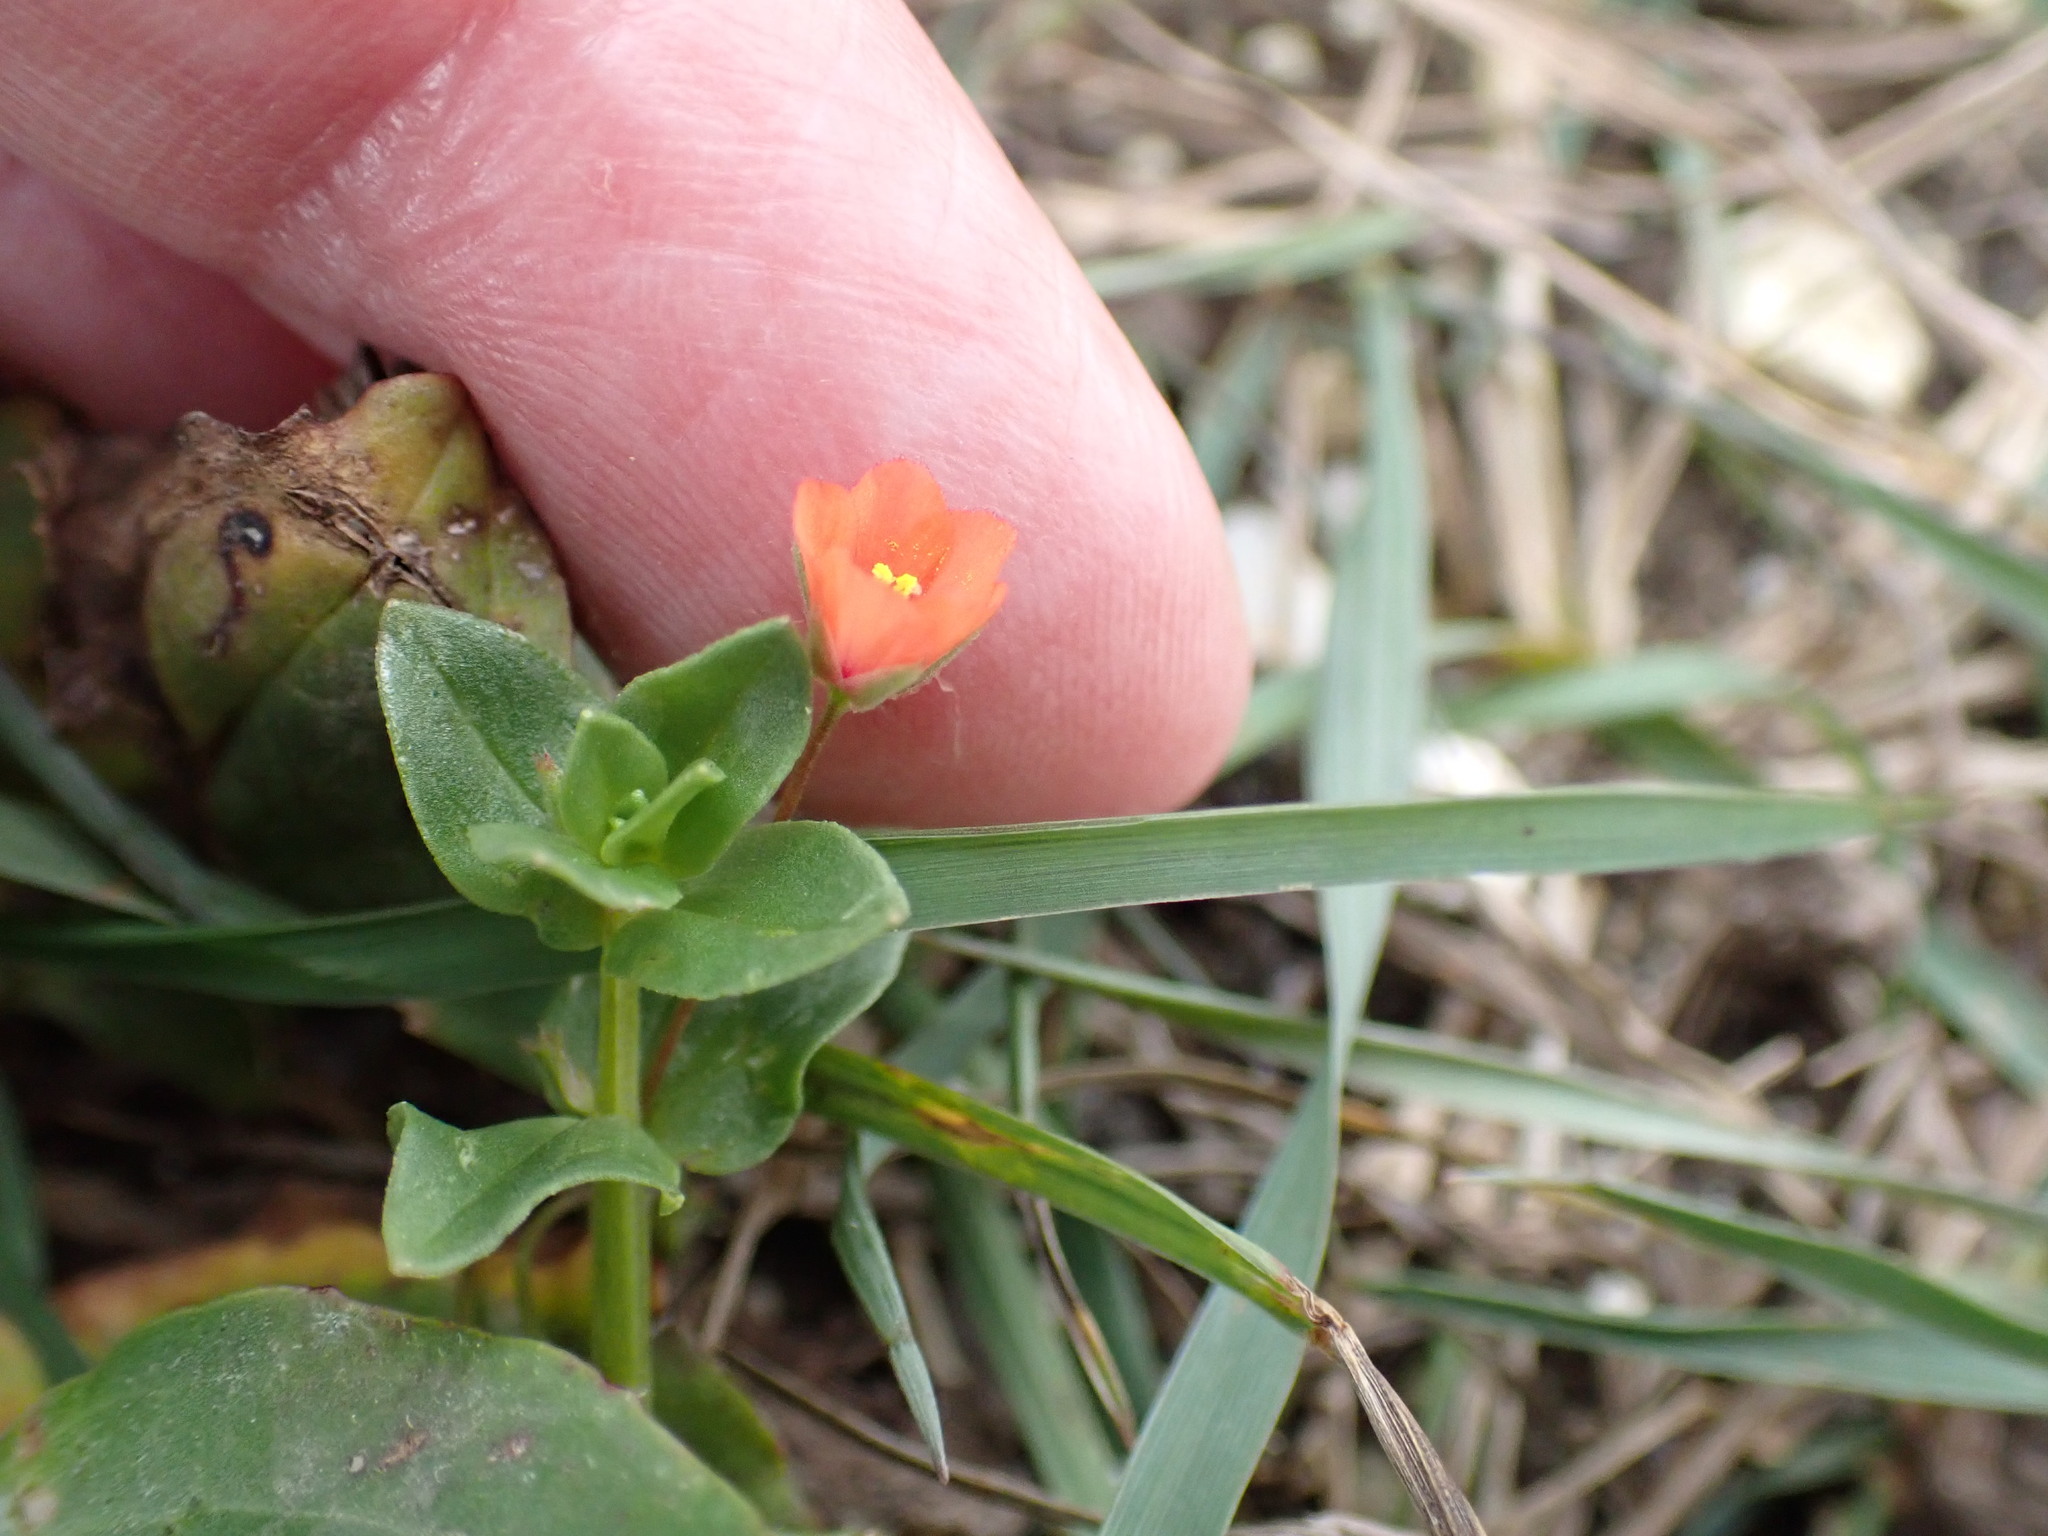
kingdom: Plantae
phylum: Tracheophyta
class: Magnoliopsida
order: Ericales
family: Primulaceae
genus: Lysimachia
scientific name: Lysimachia arvensis
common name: Scarlet pimpernel
